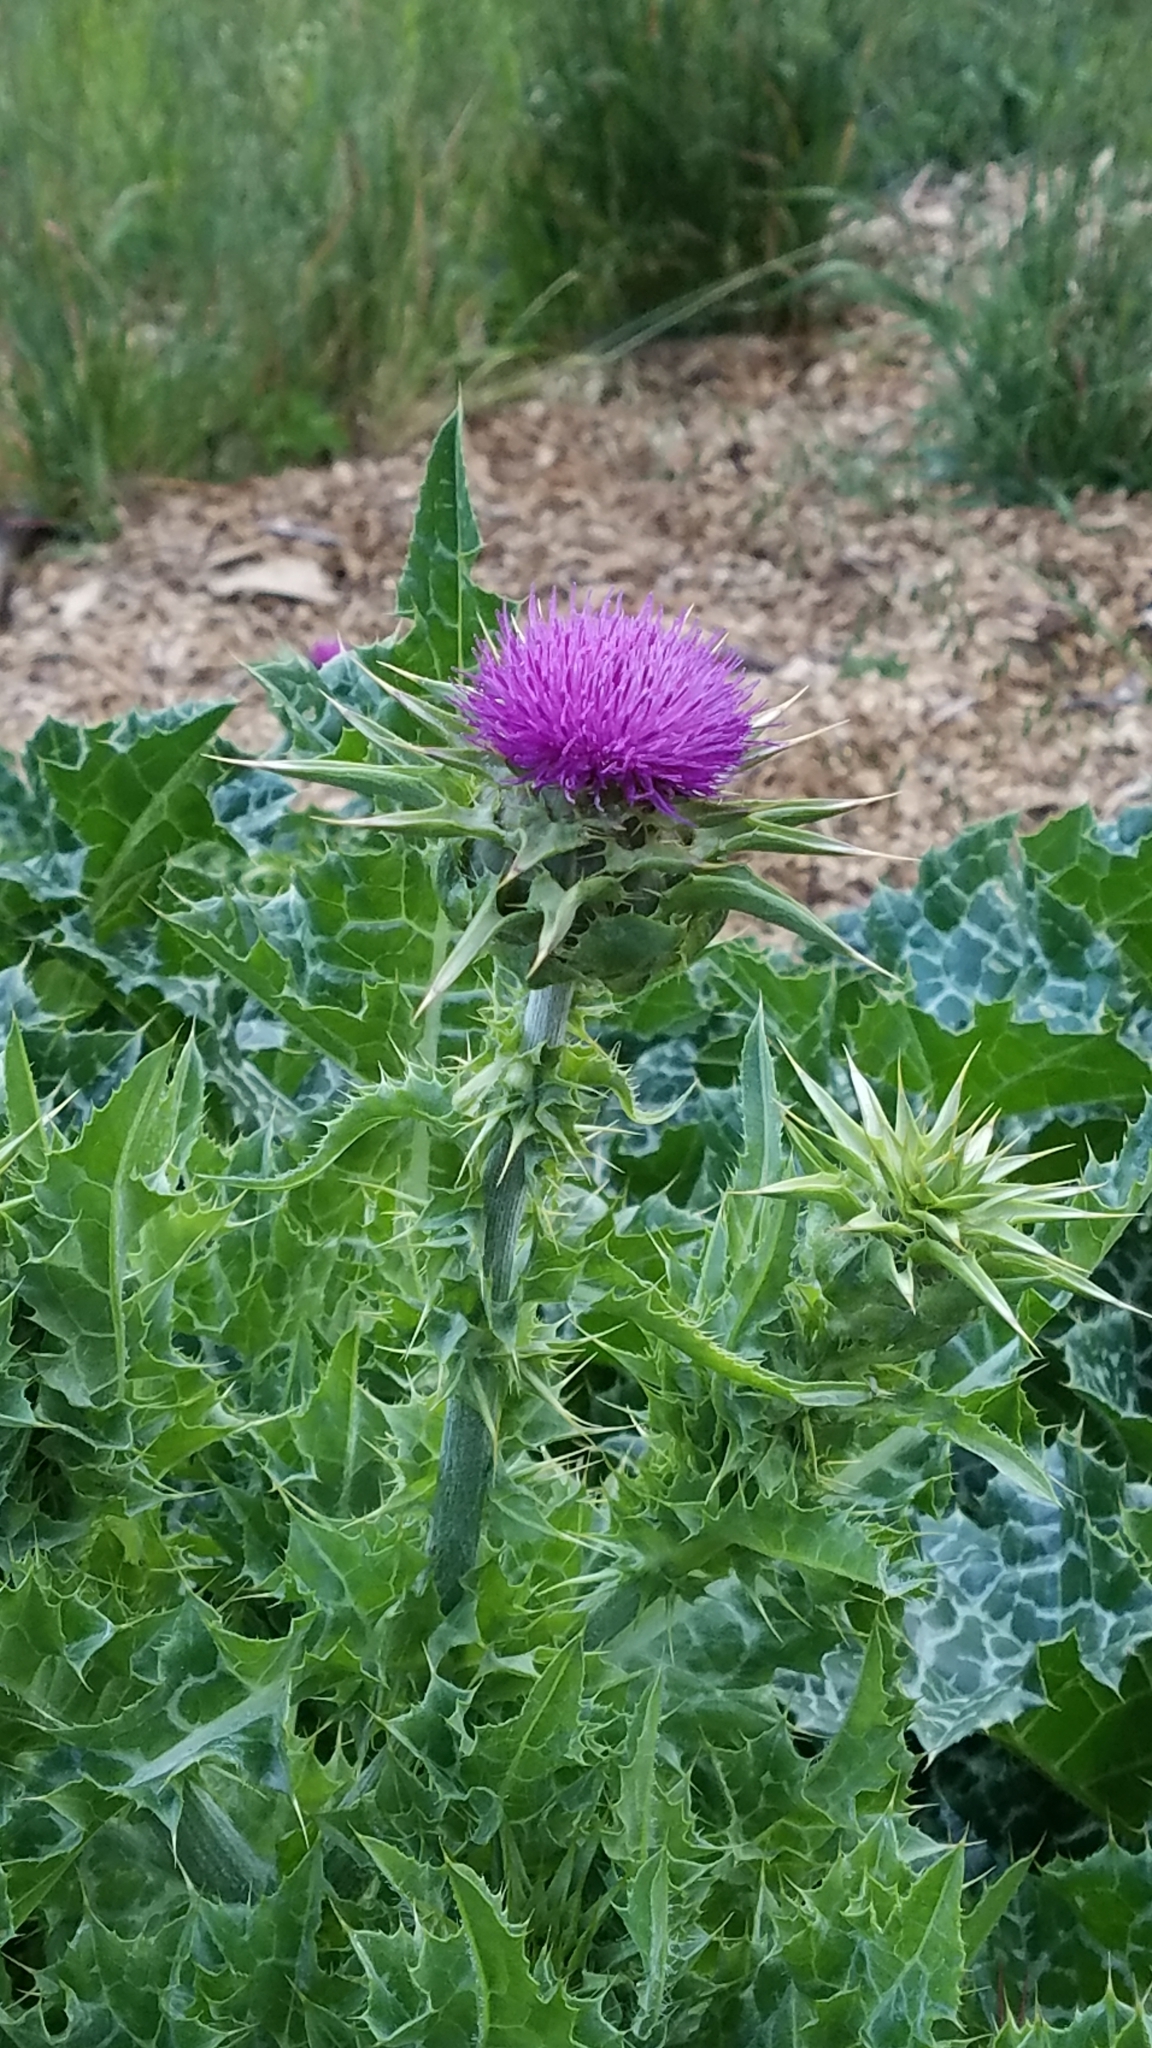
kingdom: Plantae
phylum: Tracheophyta
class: Magnoliopsida
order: Asterales
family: Asteraceae
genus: Silybum
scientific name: Silybum marianum
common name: Milk thistle
